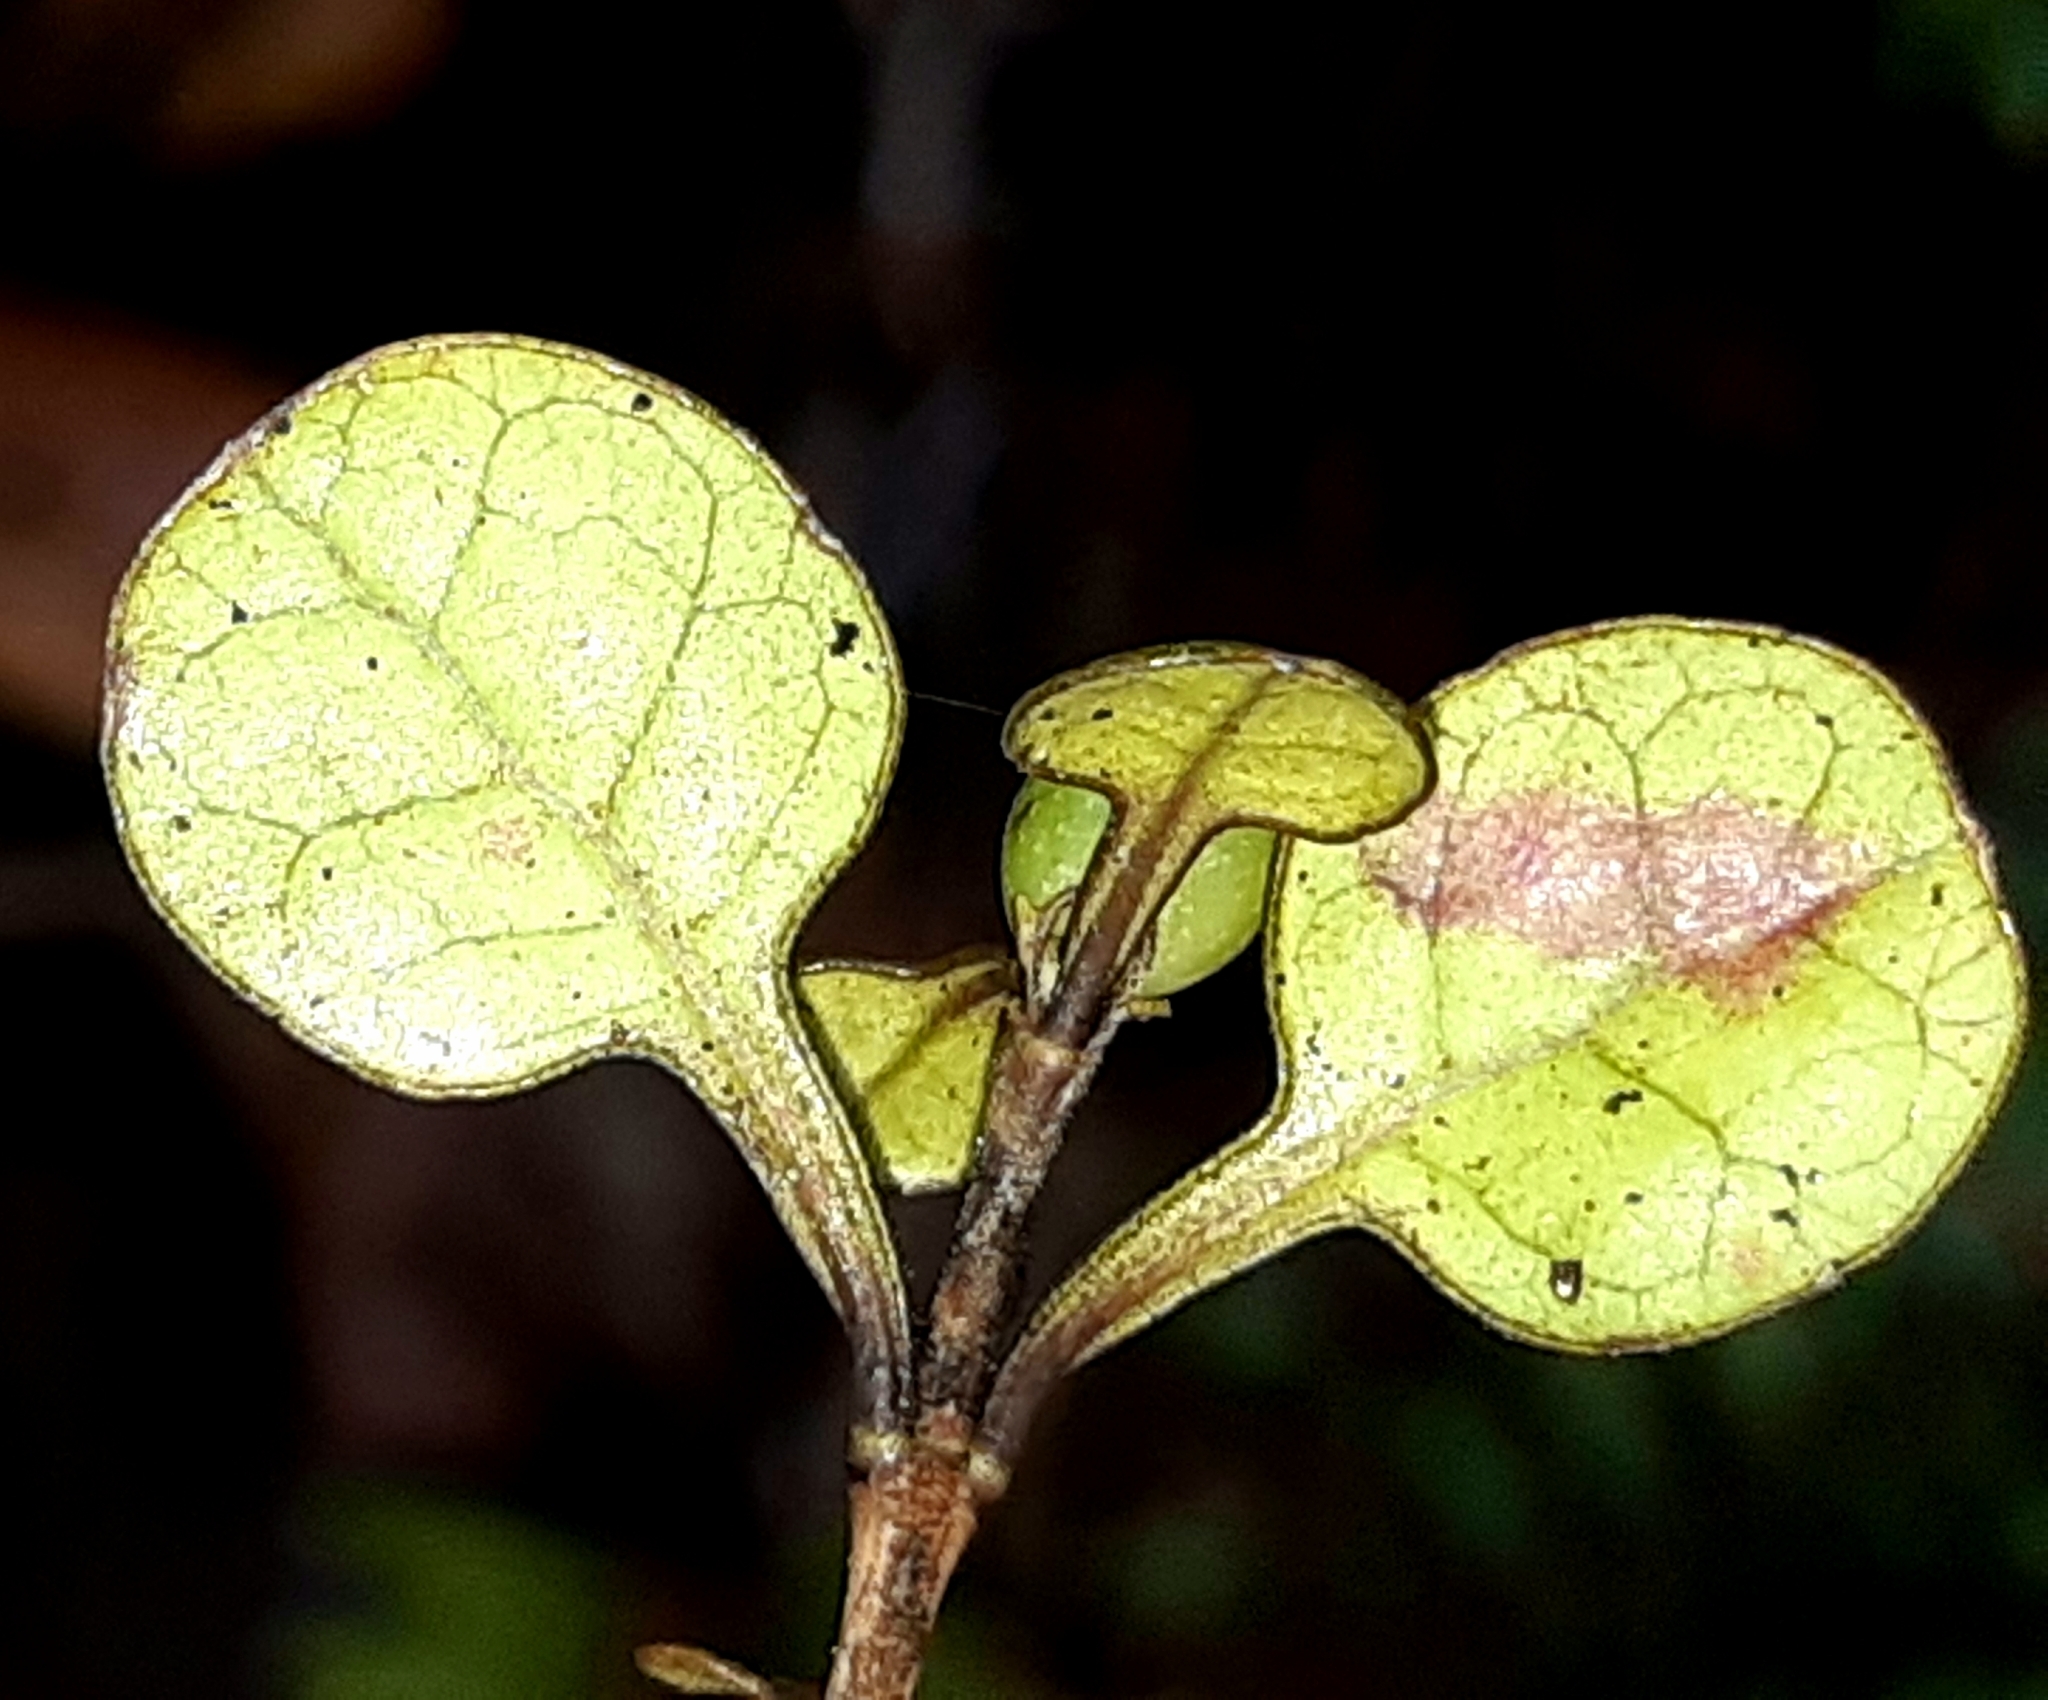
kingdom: Plantae
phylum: Tracheophyta
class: Magnoliopsida
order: Gentianales
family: Rubiaceae
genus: Coprosma
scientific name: Coprosma spathulata
